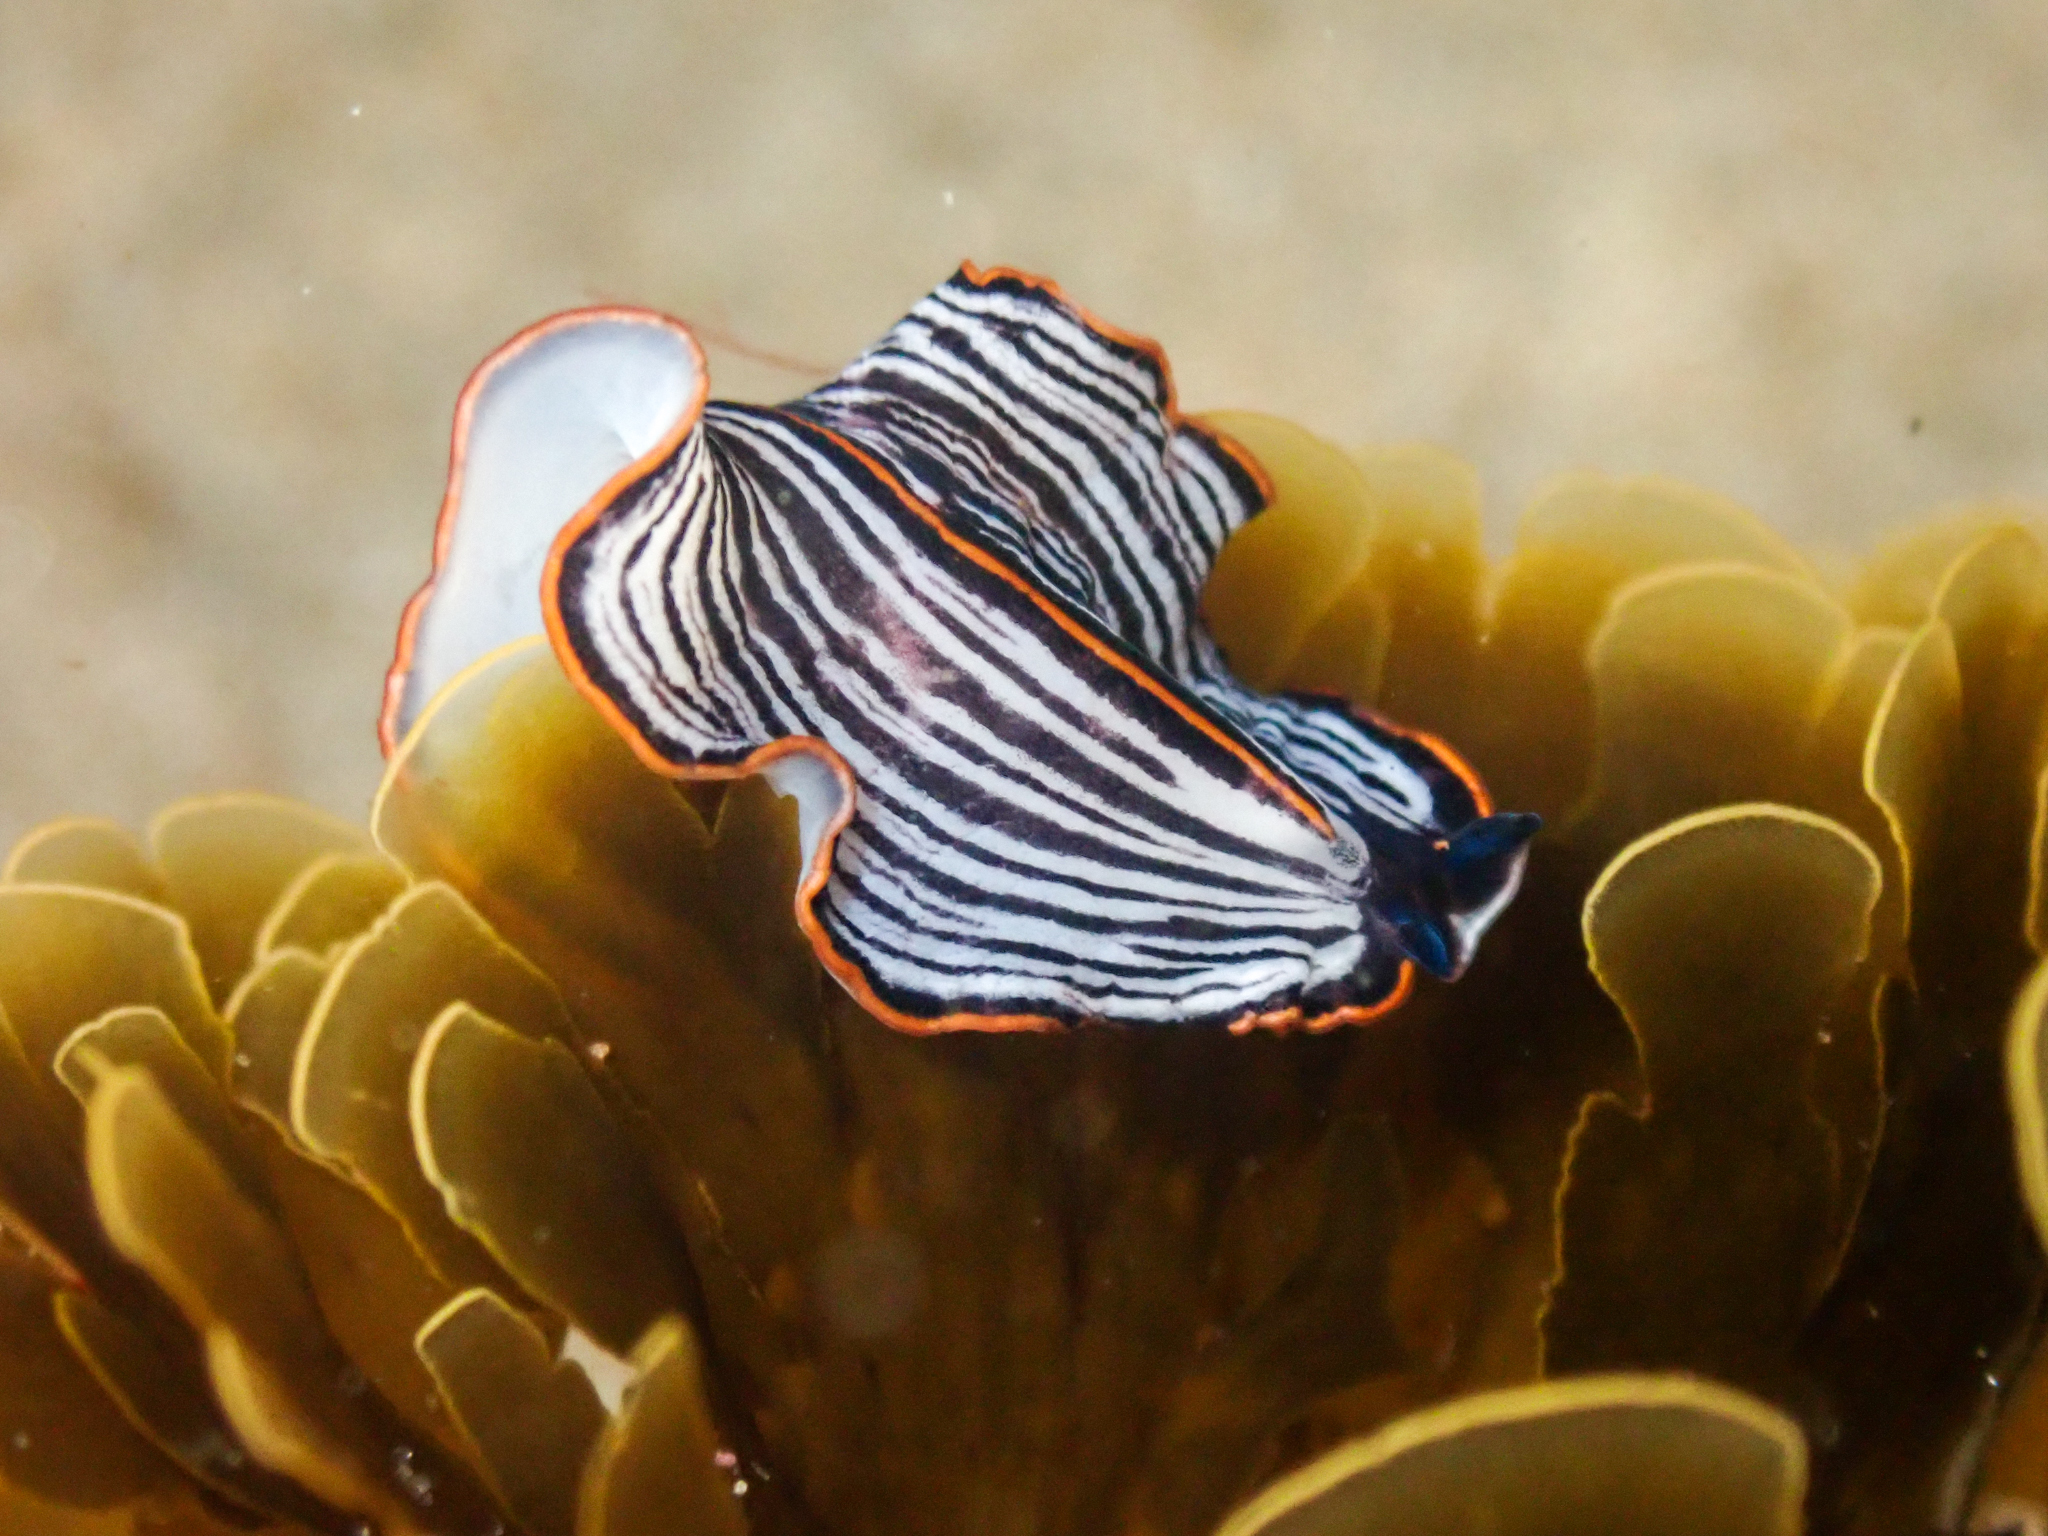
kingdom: Animalia
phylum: Platyhelminthes
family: Euryleptidae
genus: Praestheceraeus
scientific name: Praestheceraeus bellostriatus
